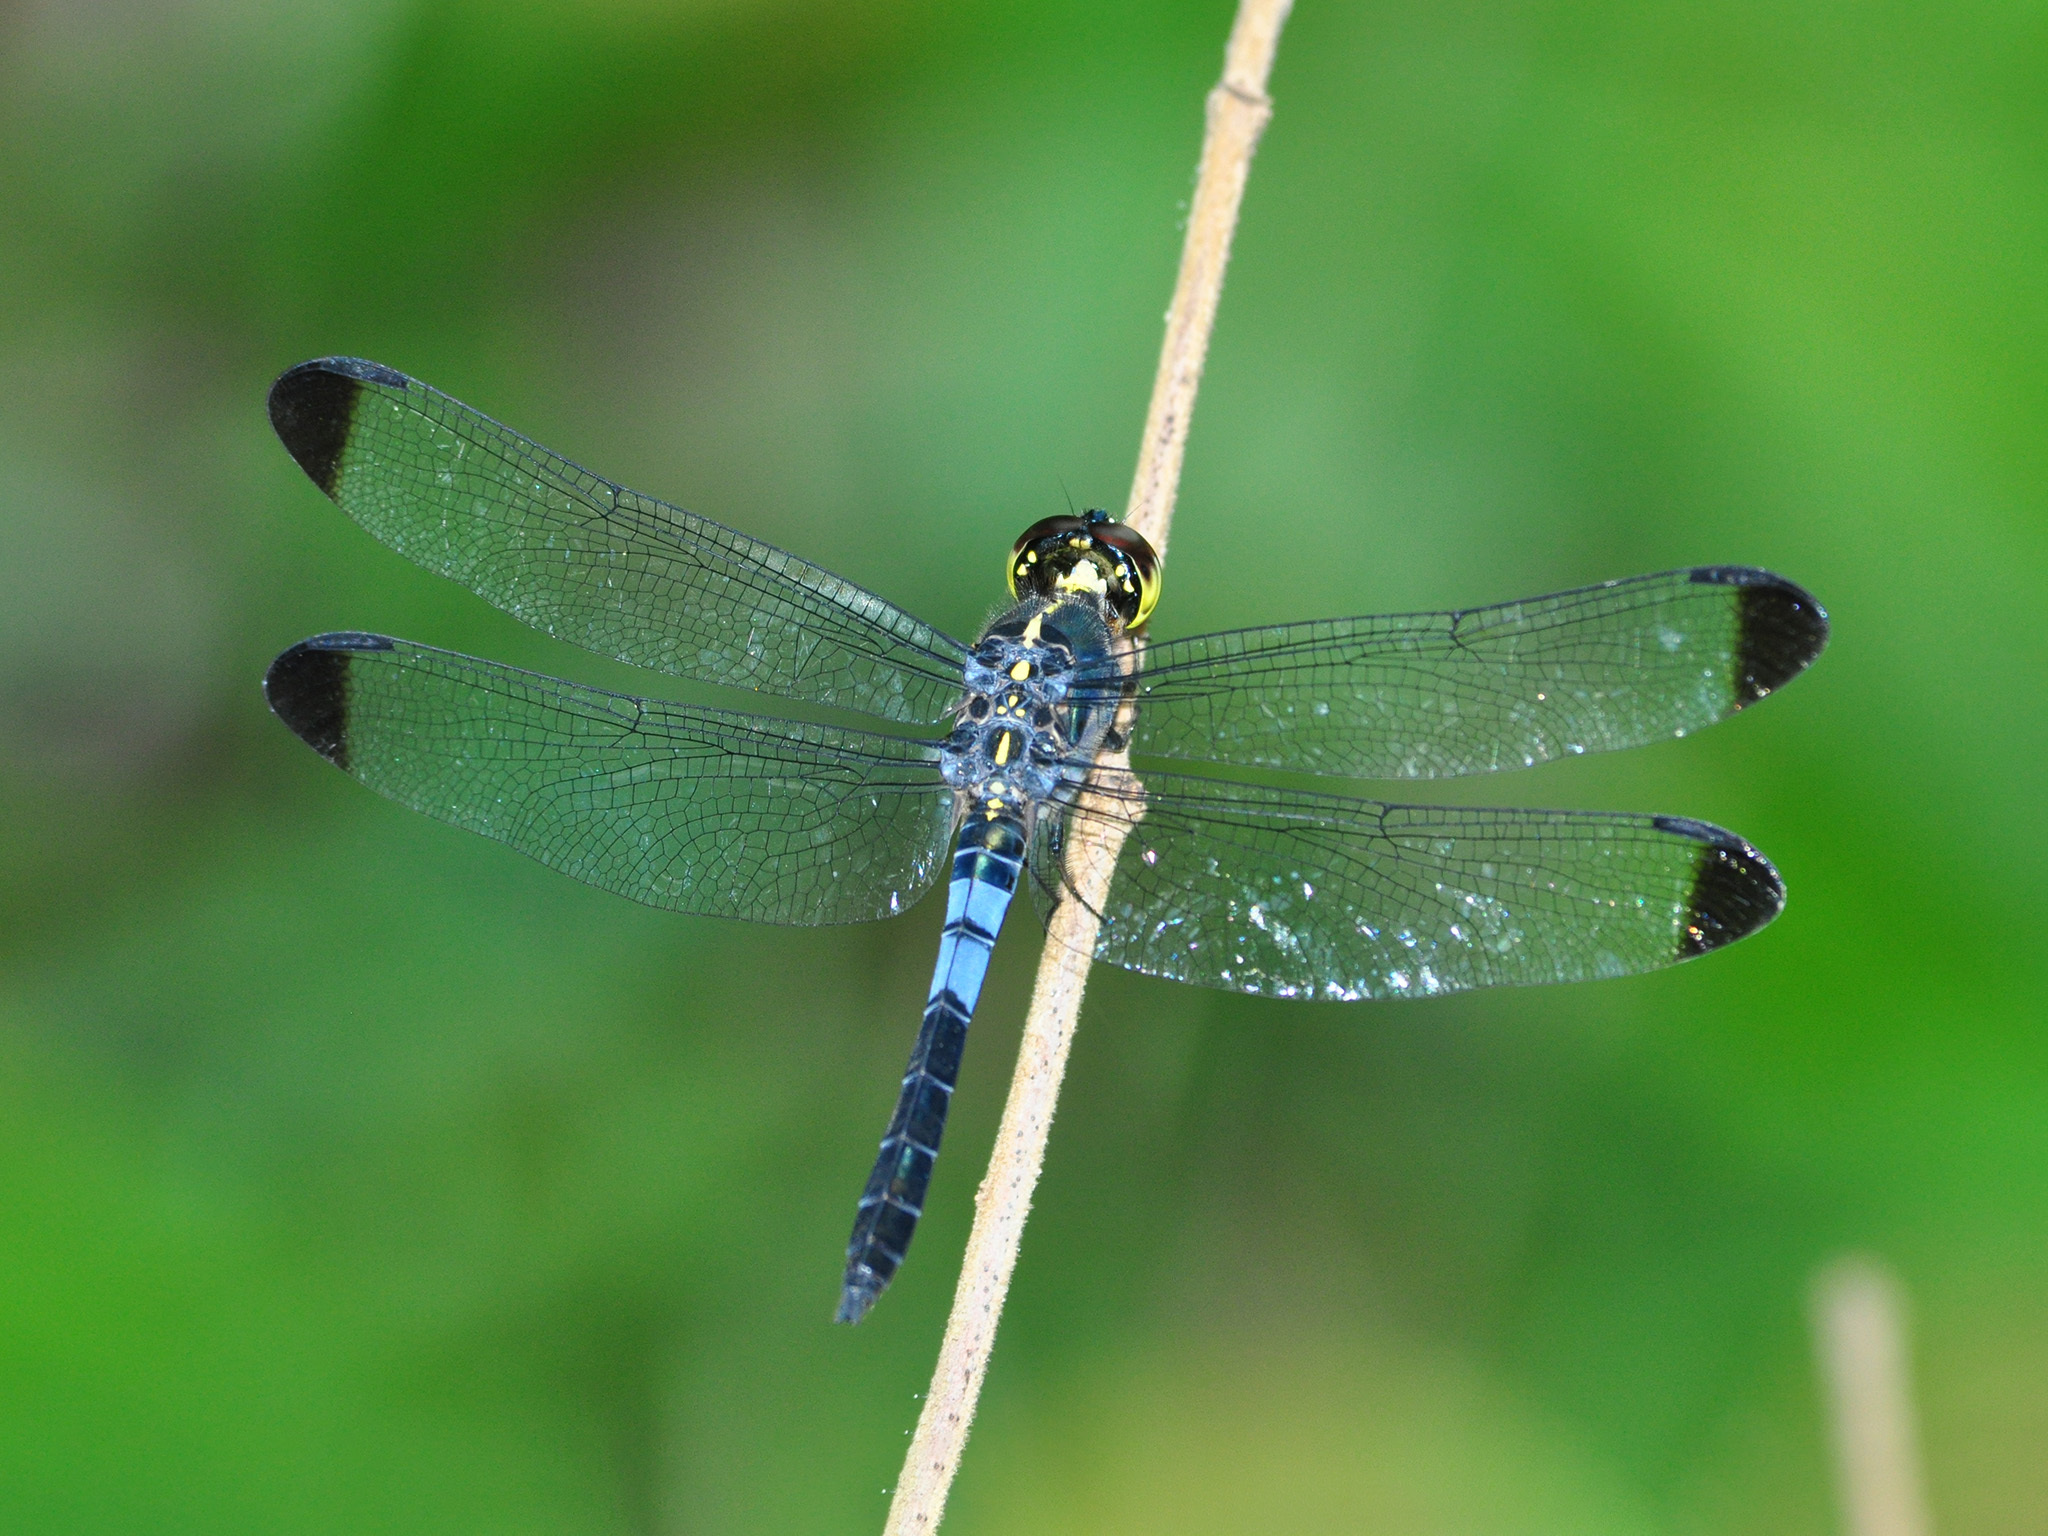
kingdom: Animalia
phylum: Arthropoda
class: Insecta
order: Odonata
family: Libellulidae
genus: Cratilla
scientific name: Cratilla metallica
